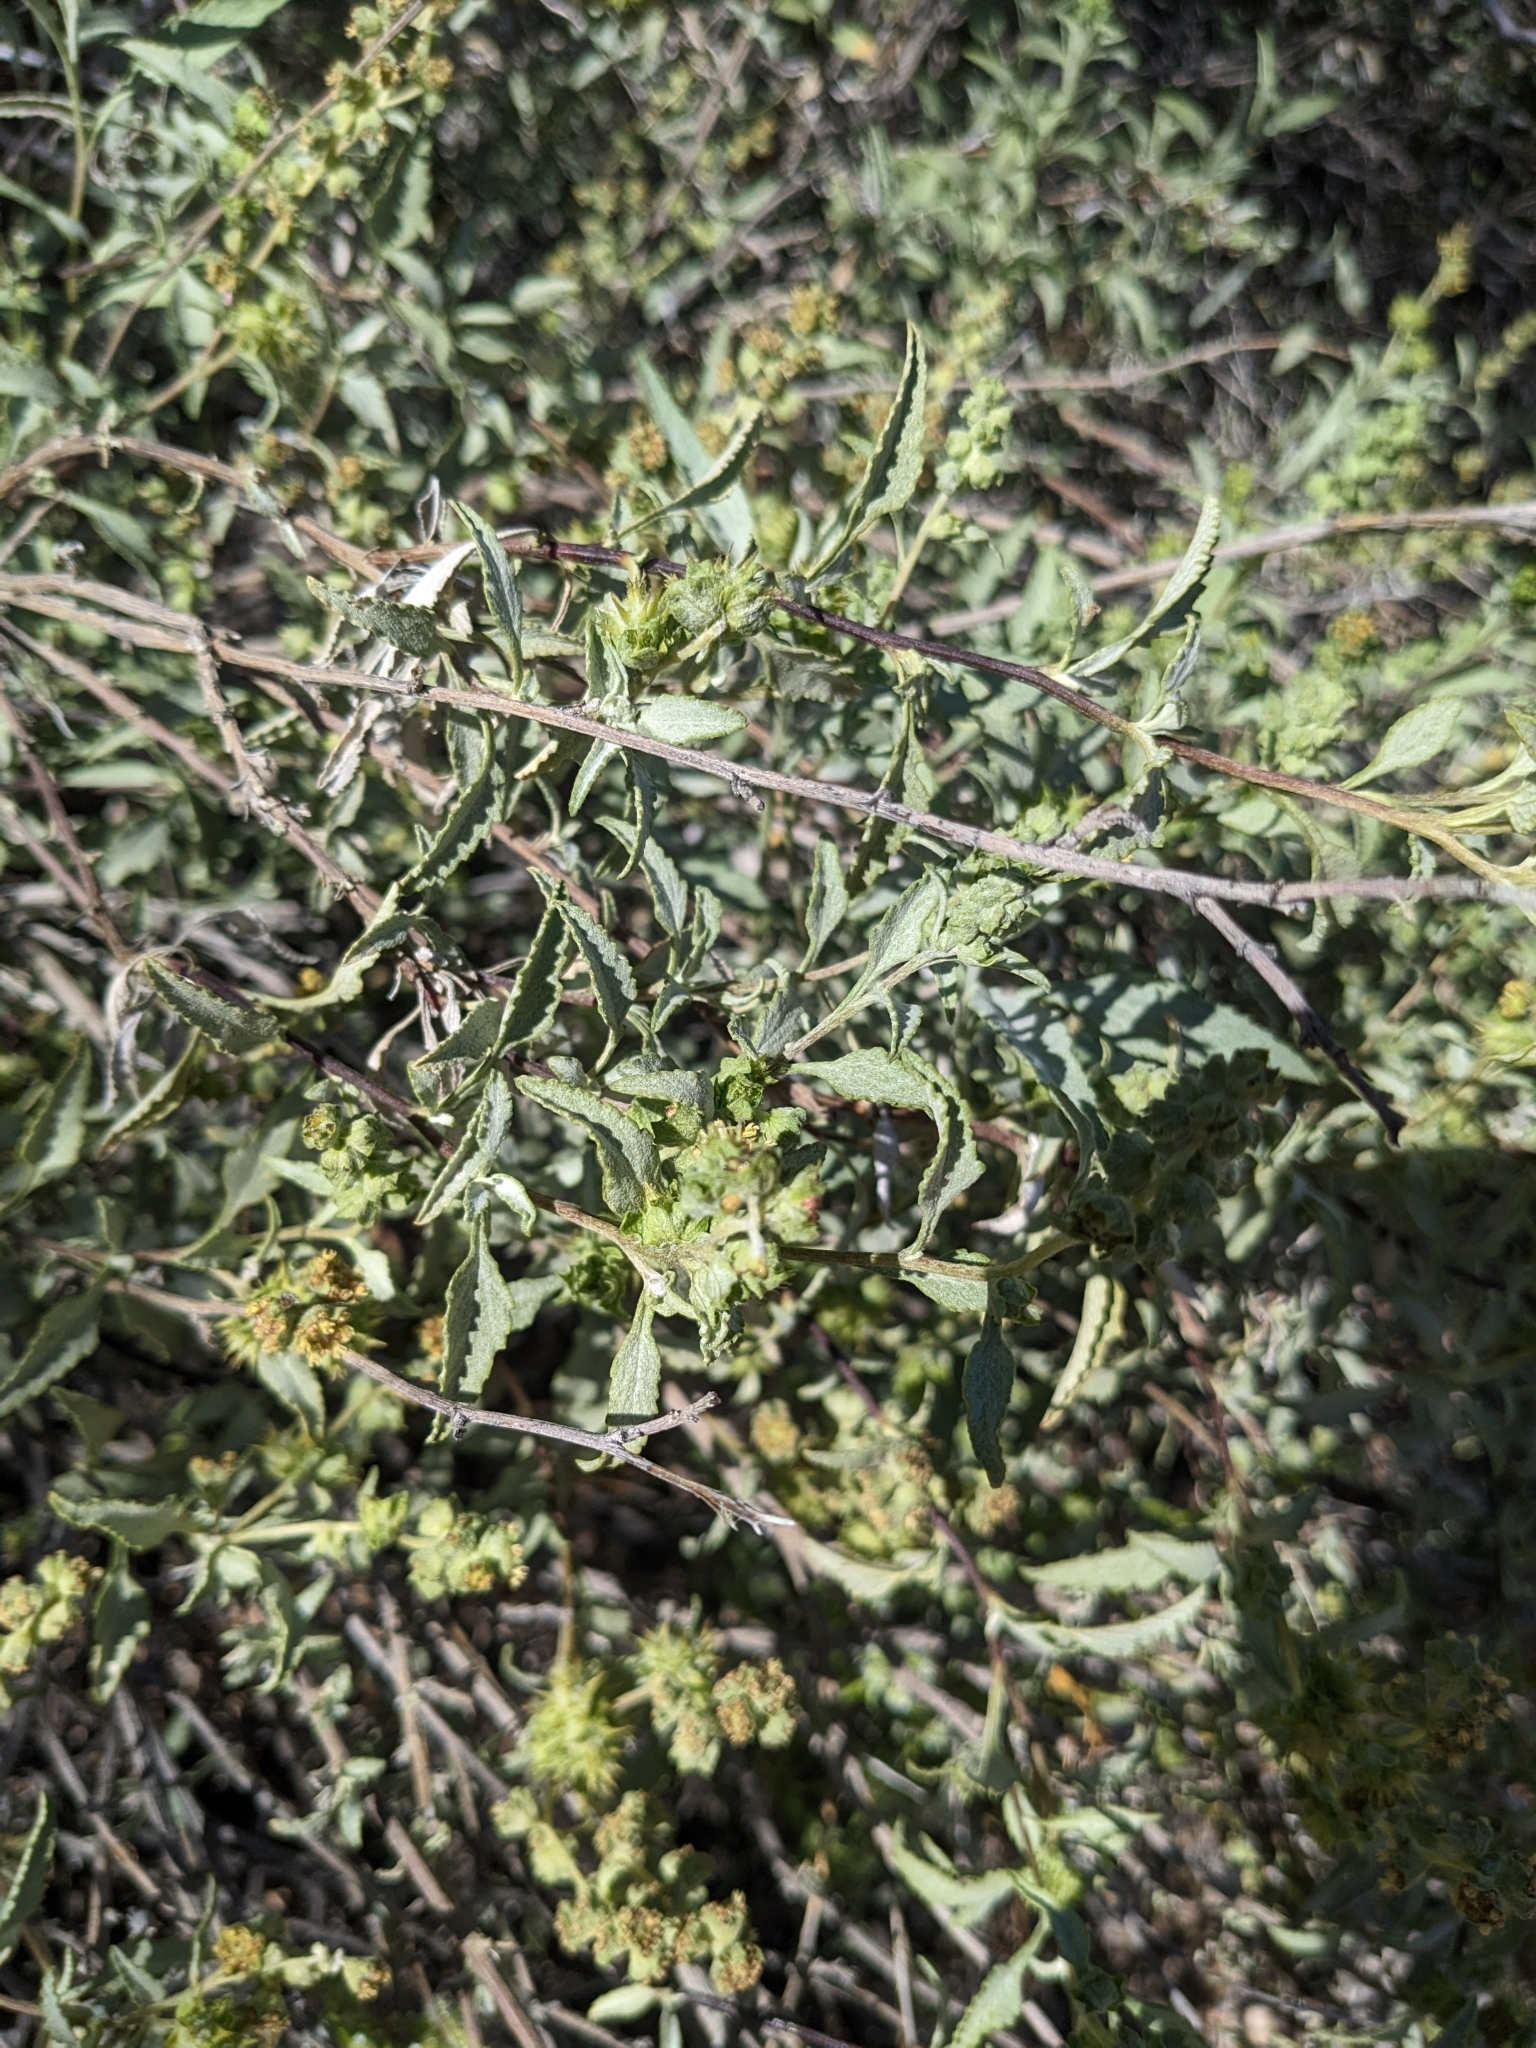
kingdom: Plantae
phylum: Tracheophyta
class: Magnoliopsida
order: Asterales
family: Asteraceae
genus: Ambrosia
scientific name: Ambrosia deltoidea
